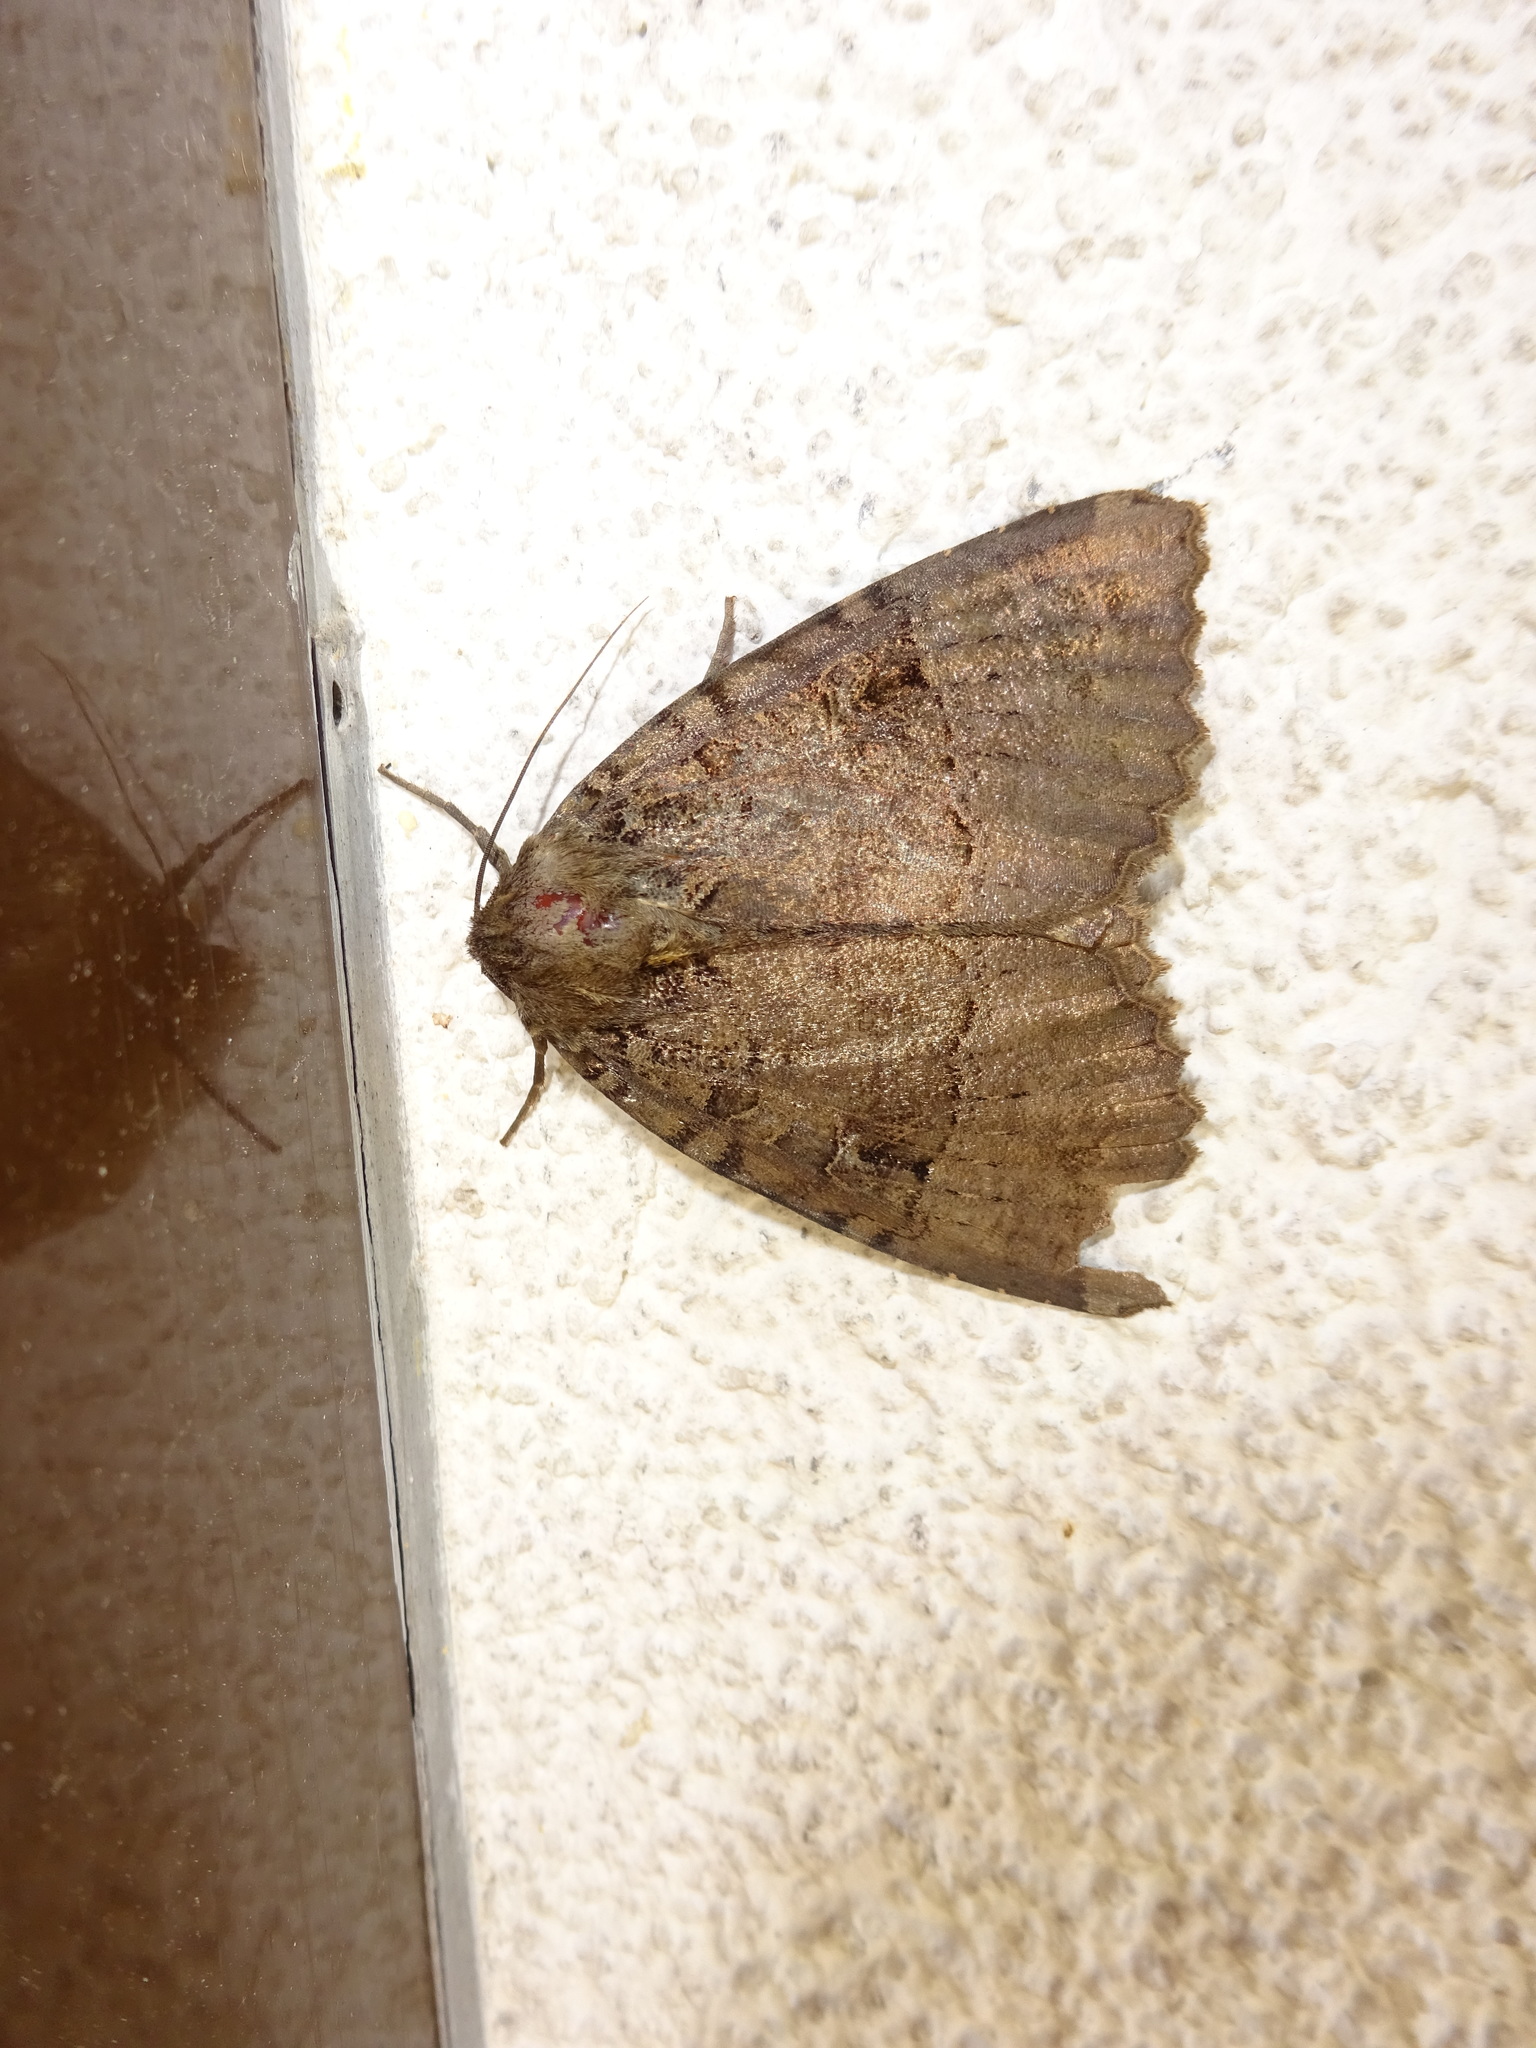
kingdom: Animalia
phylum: Arthropoda
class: Insecta
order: Lepidoptera
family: Noctuidae
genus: Mormo
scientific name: Mormo maura
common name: Old lady
